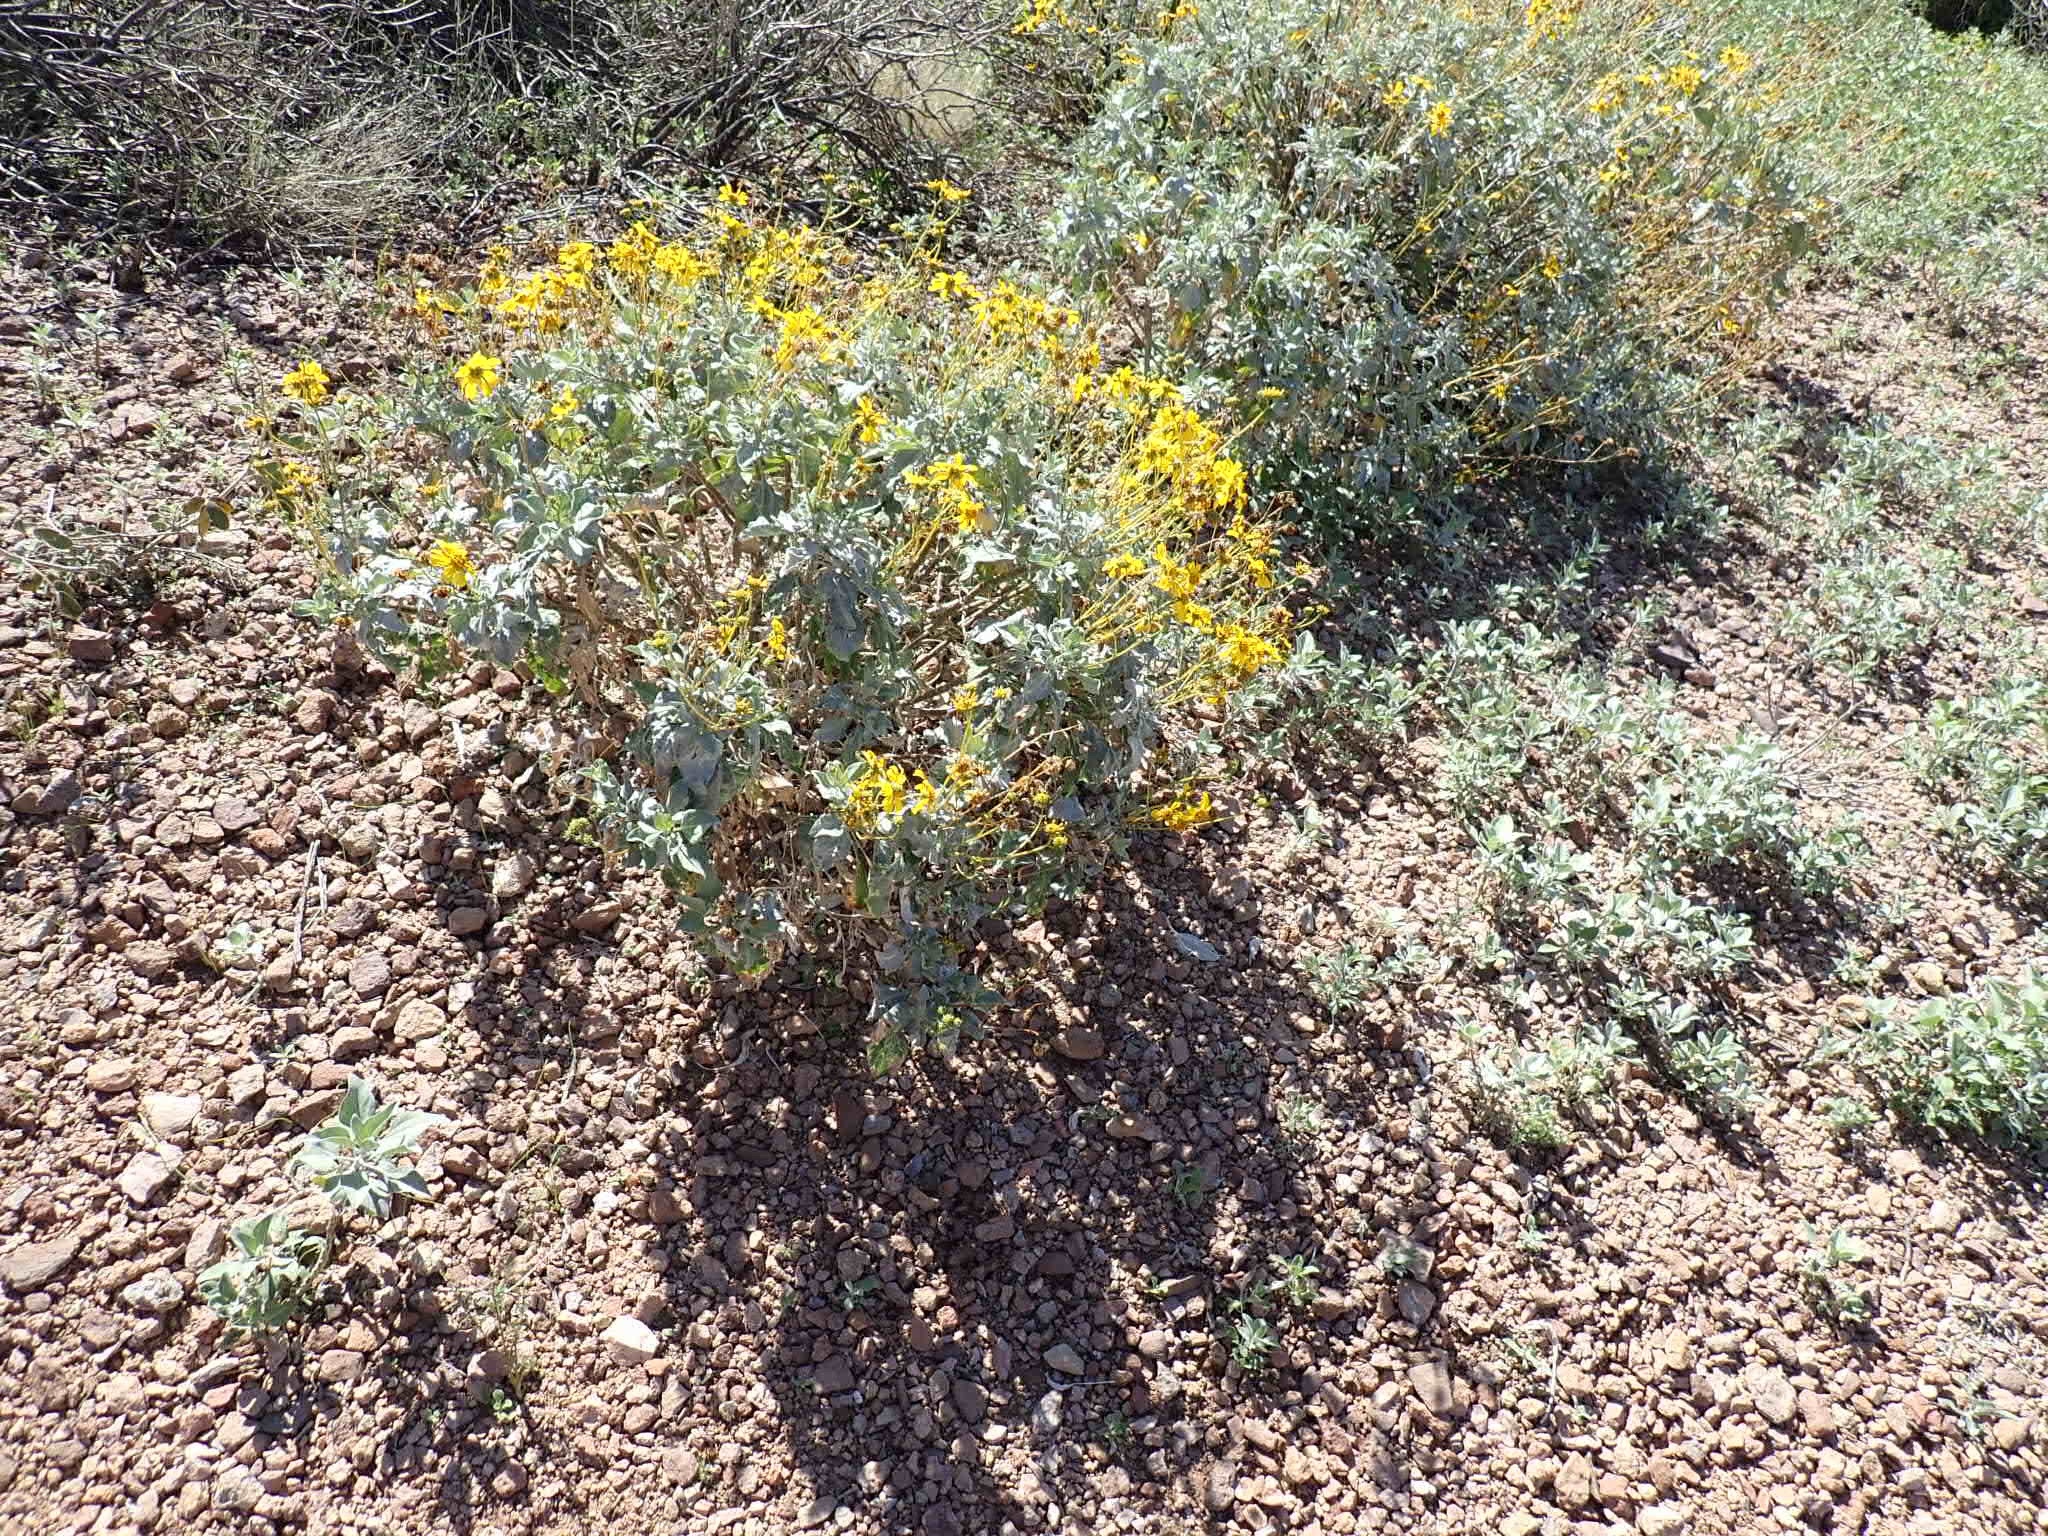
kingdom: Plantae
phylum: Tracheophyta
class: Magnoliopsida
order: Asterales
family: Asteraceae
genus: Encelia
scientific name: Encelia farinosa
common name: Brittlebush
